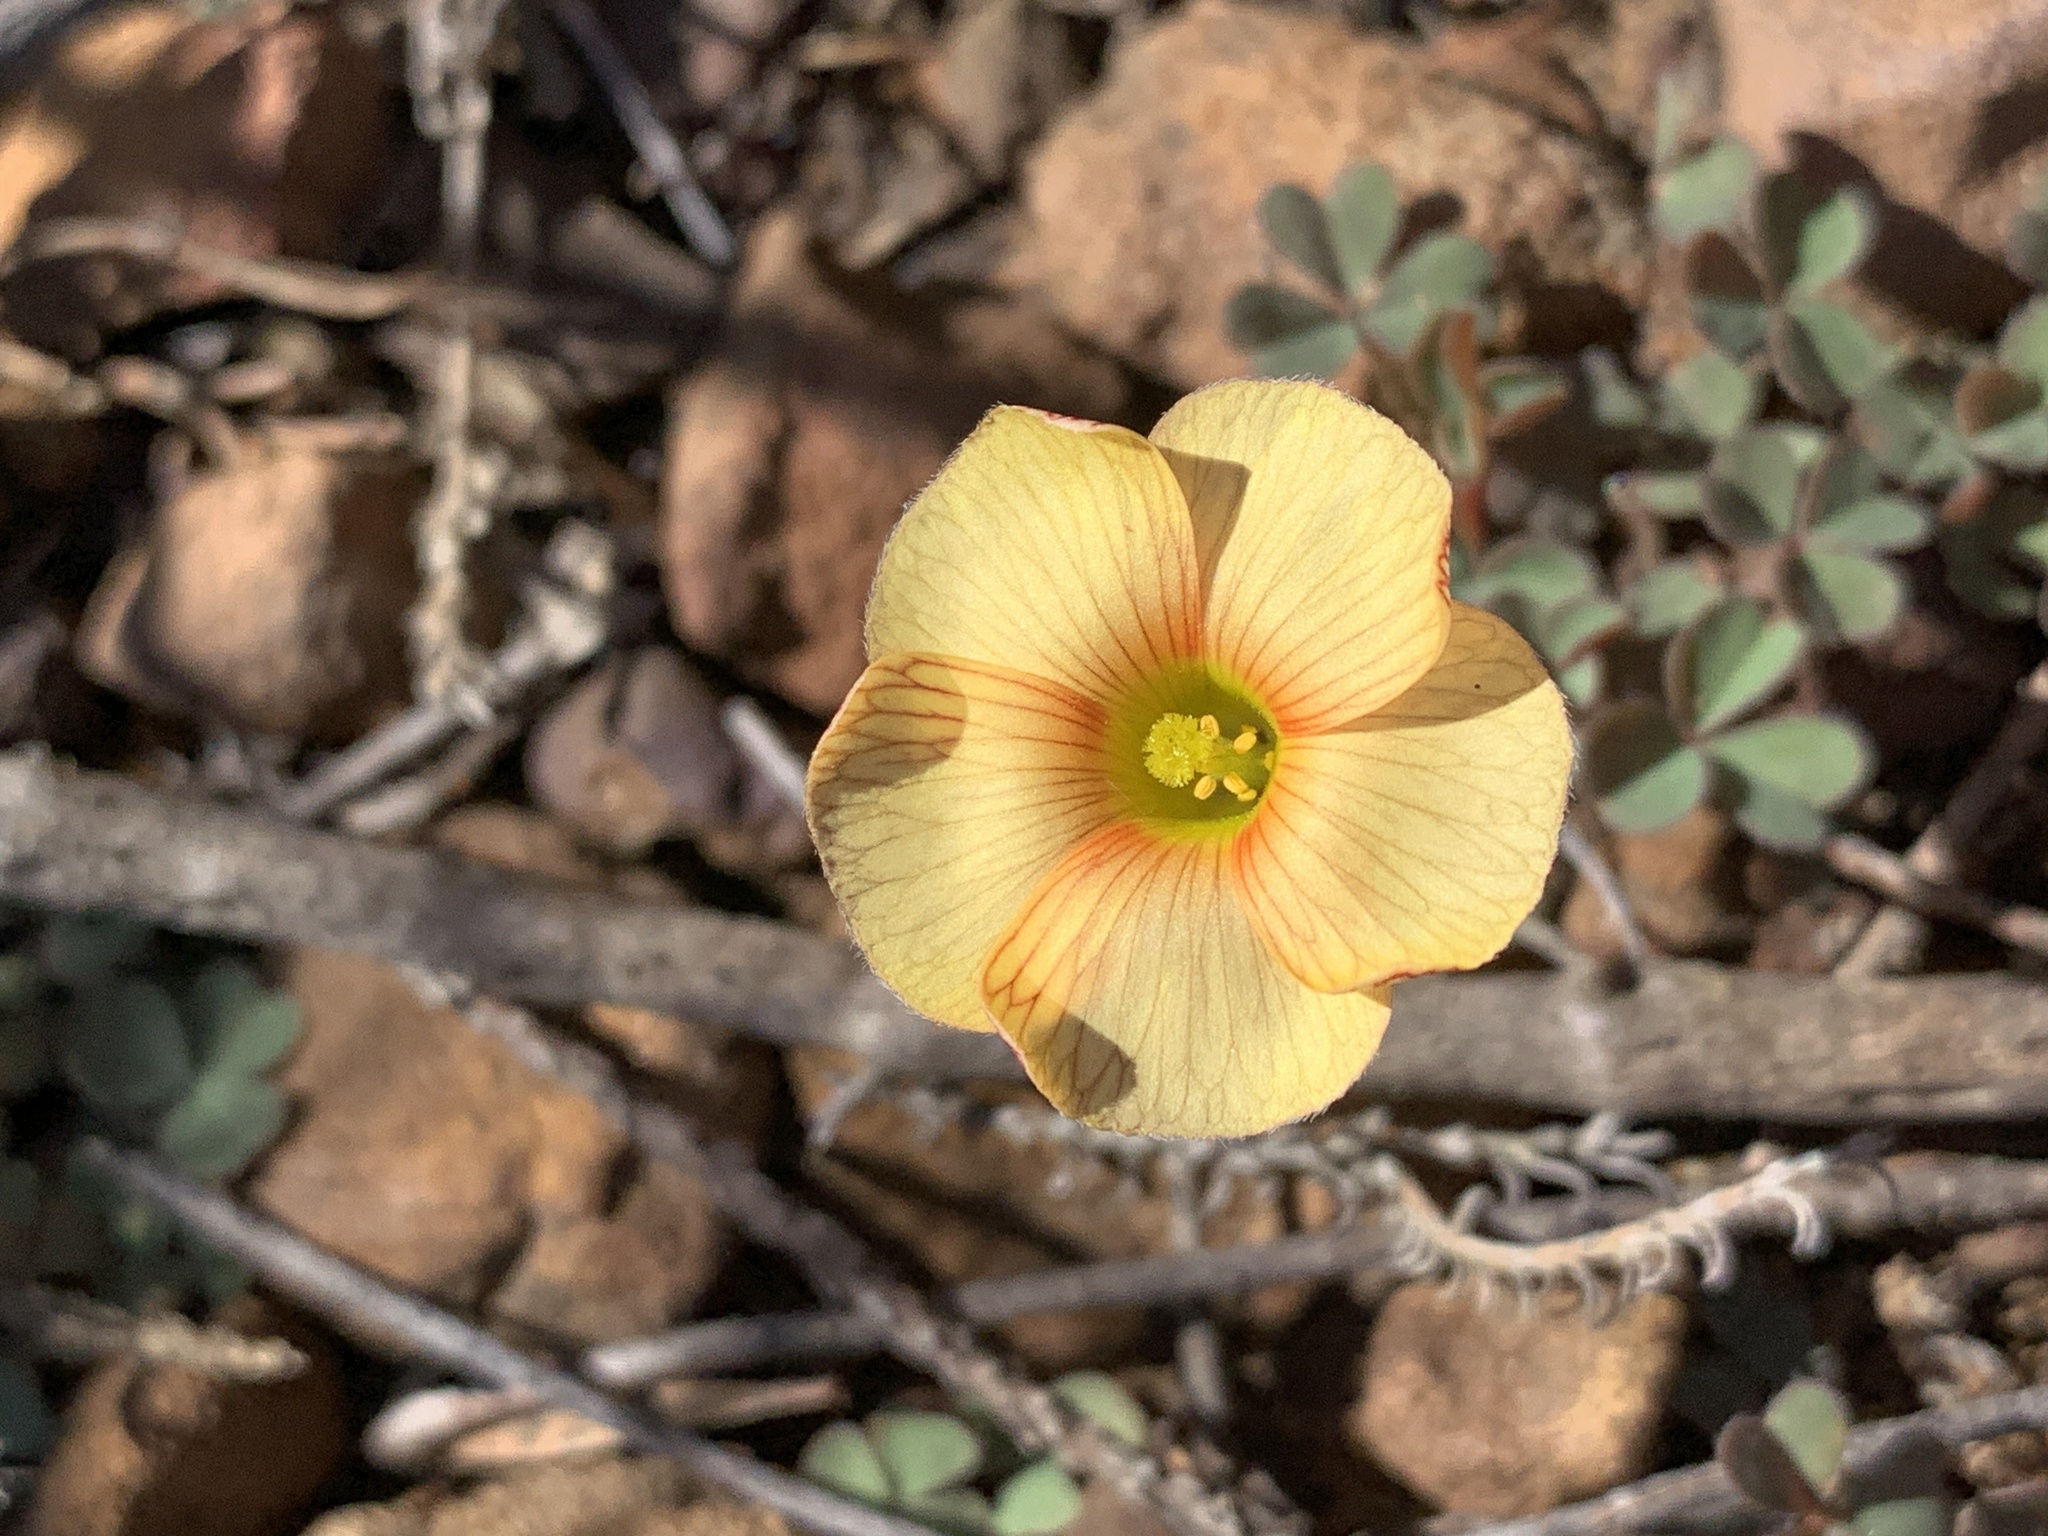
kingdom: Plantae
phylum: Tracheophyta
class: Magnoliopsida
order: Oxalidales
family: Oxalidaceae
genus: Oxalis
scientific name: Oxalis obtusa
